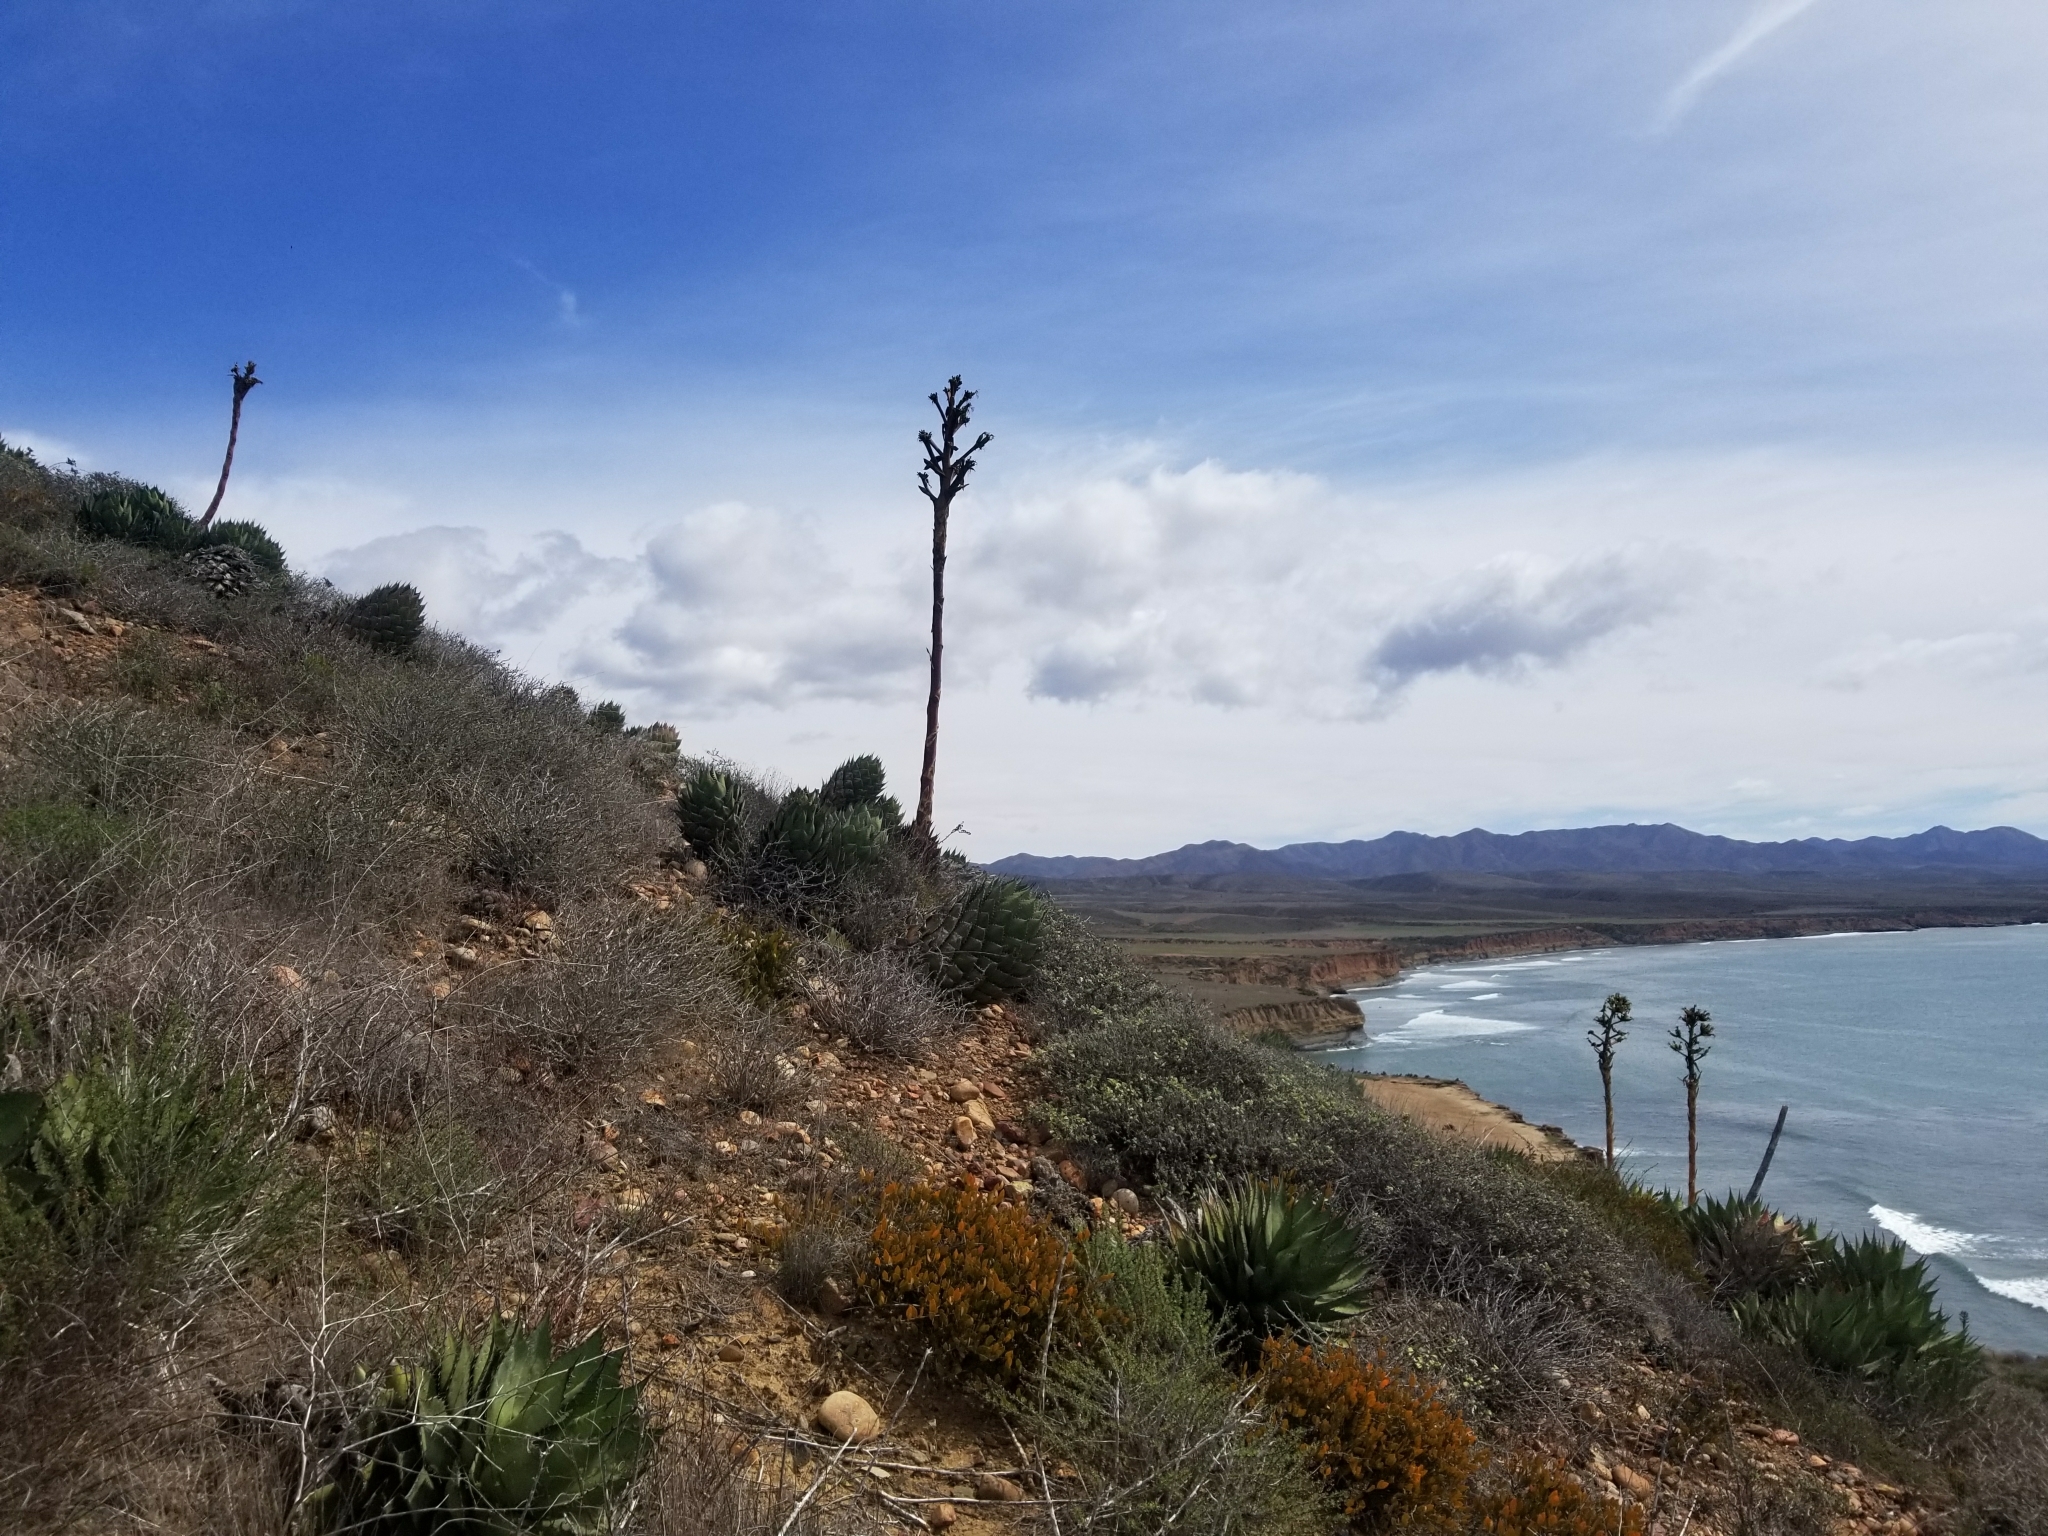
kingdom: Plantae
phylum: Tracheophyta
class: Liliopsida
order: Asparagales
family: Asparagaceae
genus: Agave
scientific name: Agave shawii
